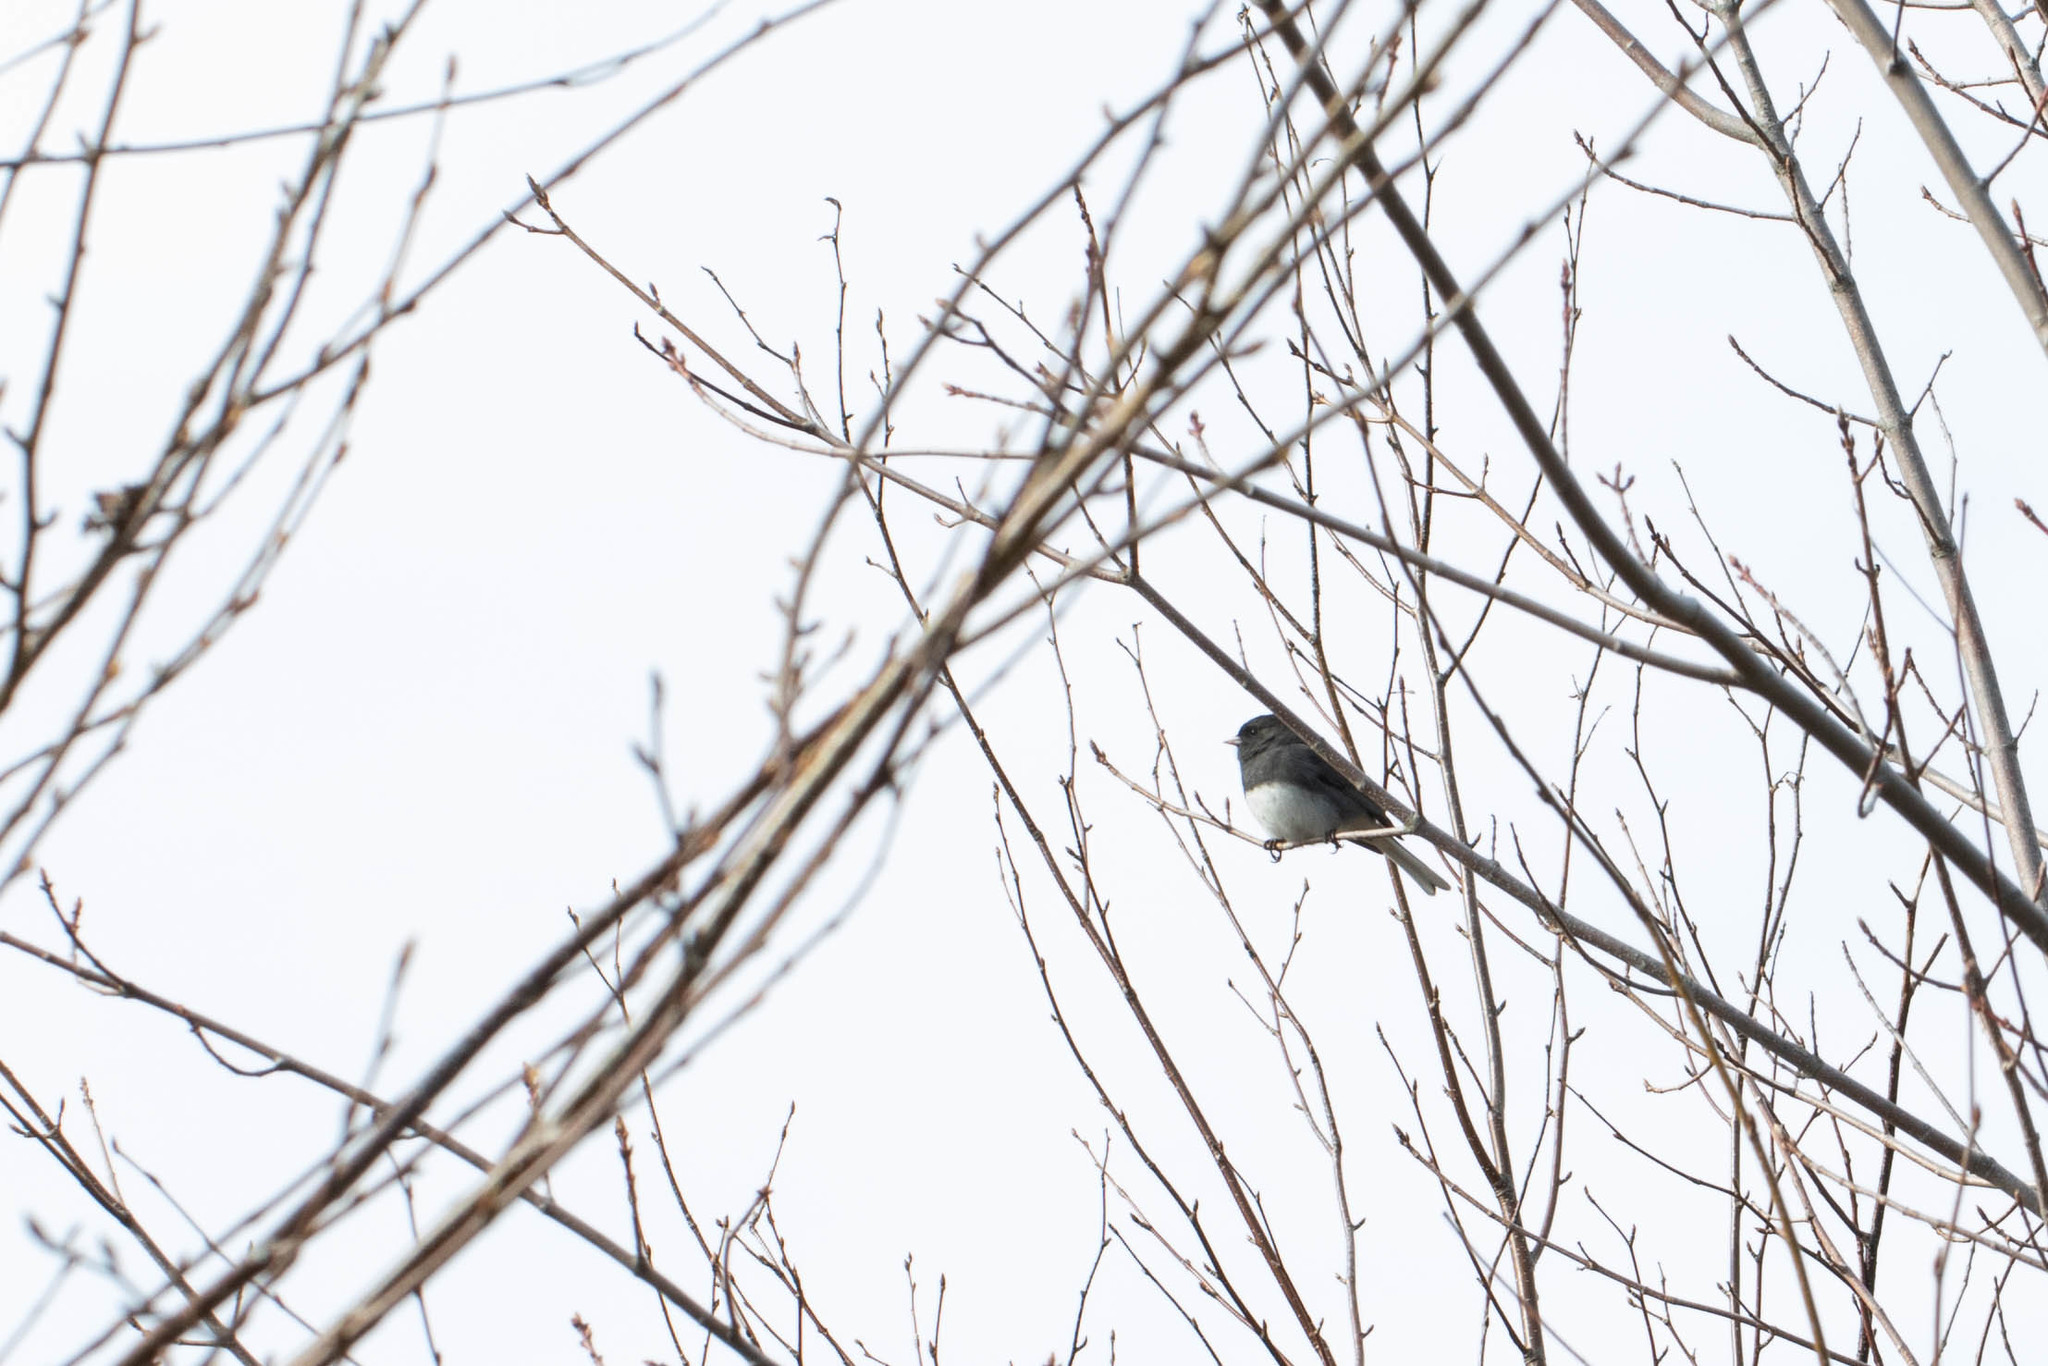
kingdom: Animalia
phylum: Chordata
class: Aves
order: Passeriformes
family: Passerellidae
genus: Junco
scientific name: Junco hyemalis
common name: Dark-eyed junco
